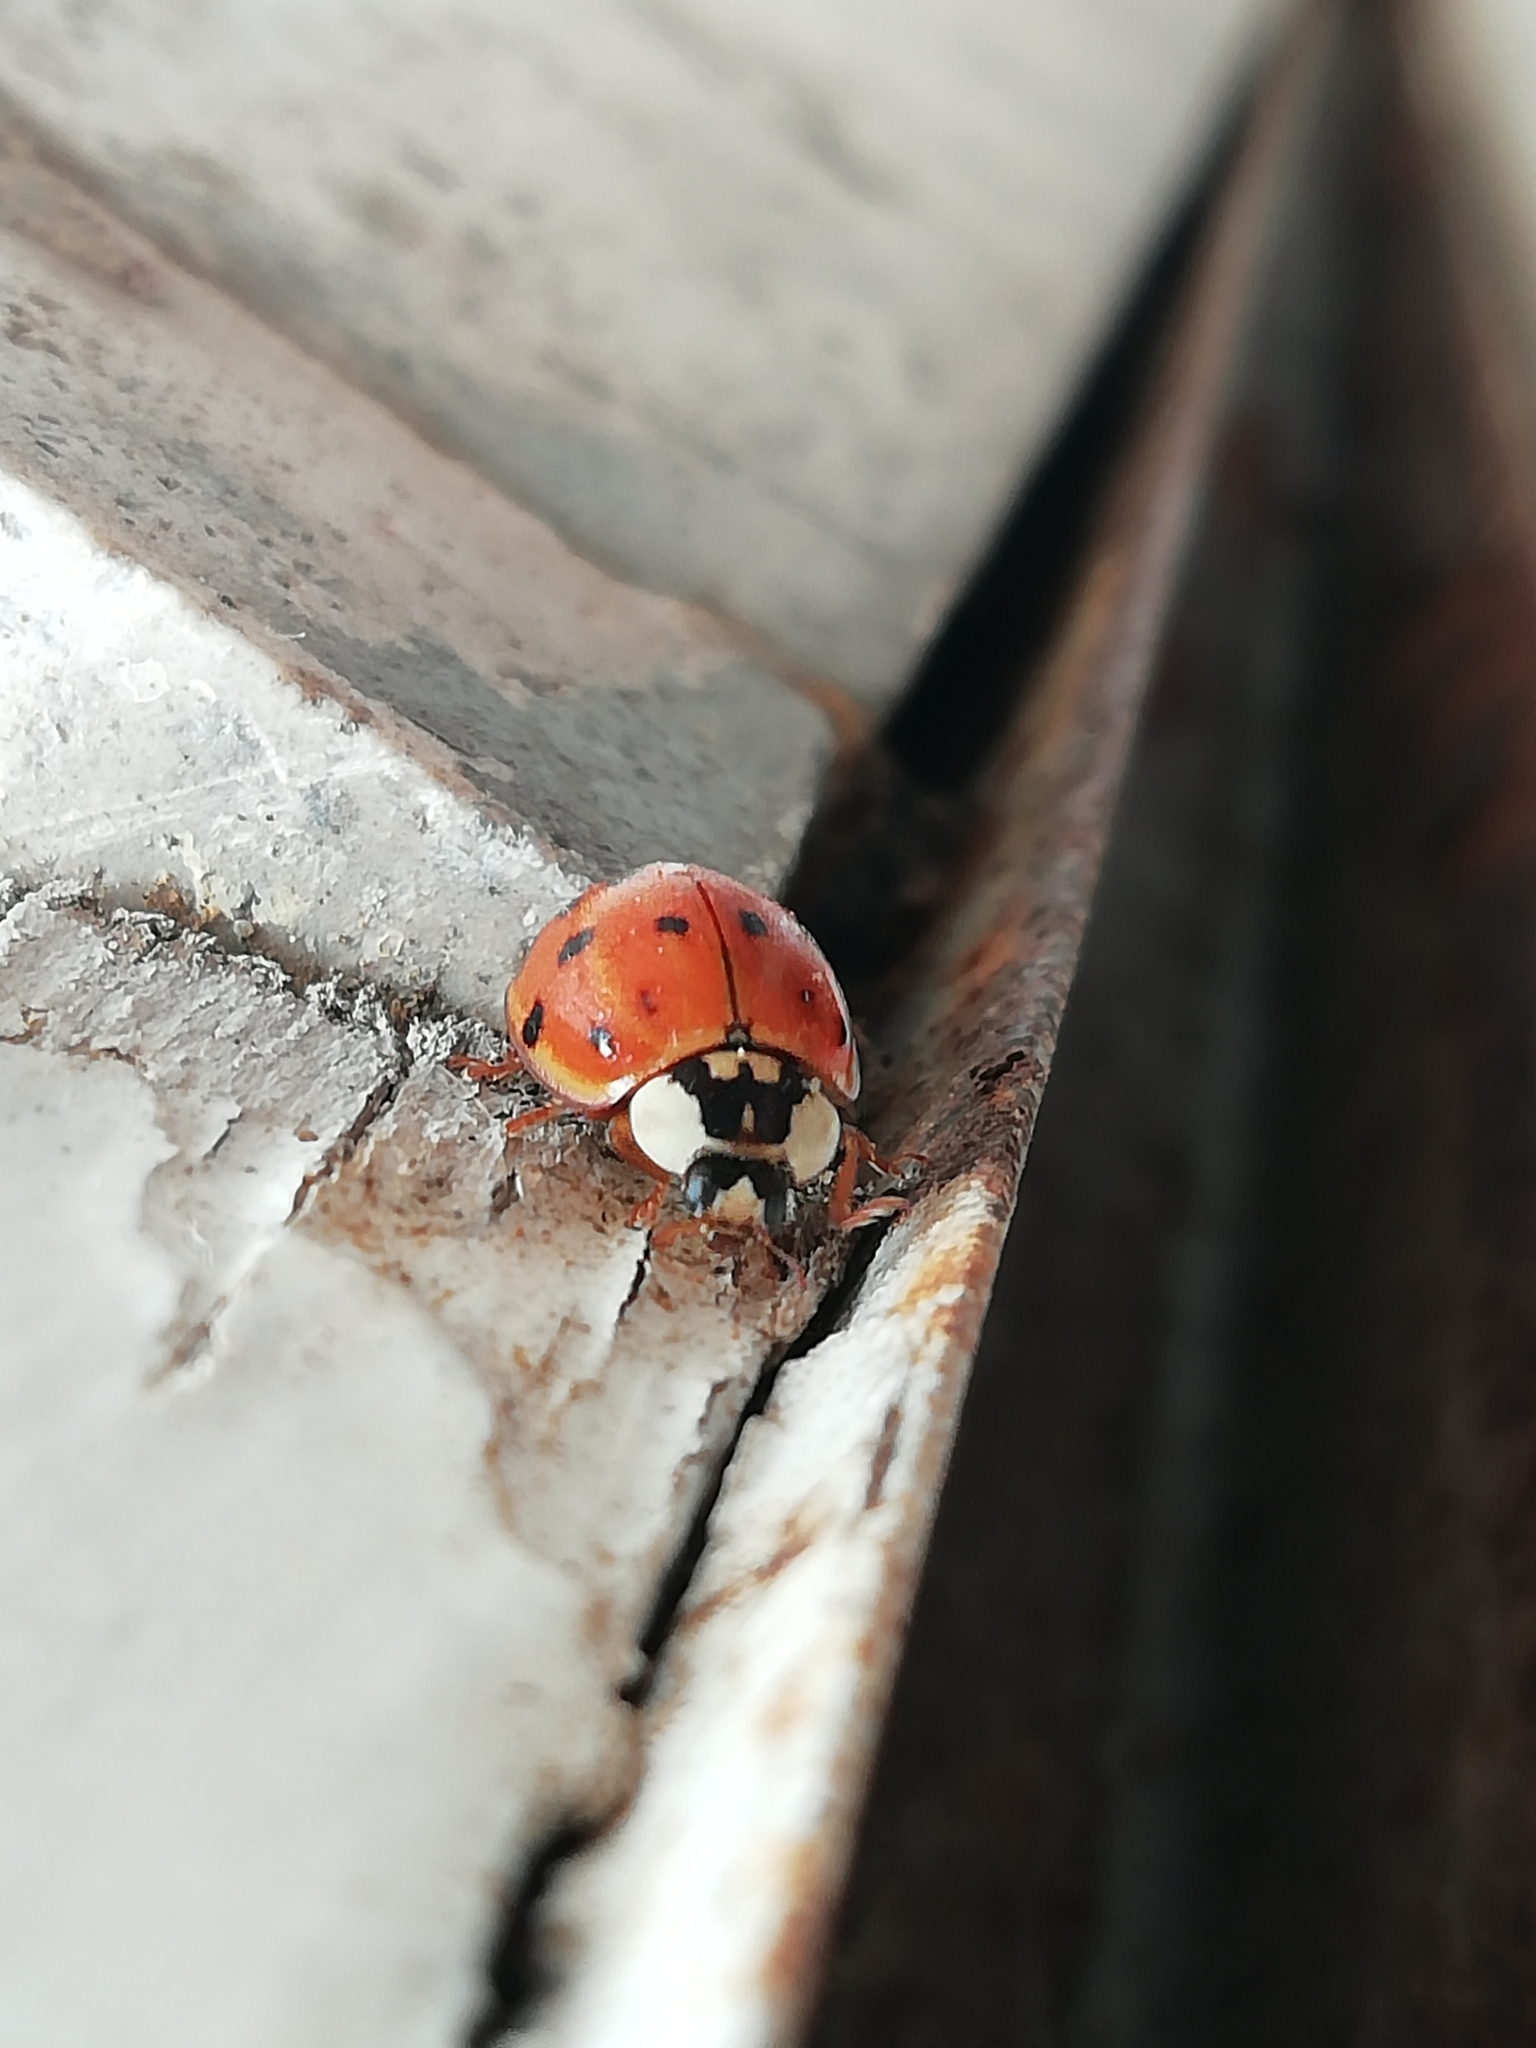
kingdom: Animalia
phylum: Arthropoda
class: Insecta
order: Coleoptera
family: Coccinellidae
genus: Harmonia
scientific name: Harmonia axyridis
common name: Harlequin ladybird
